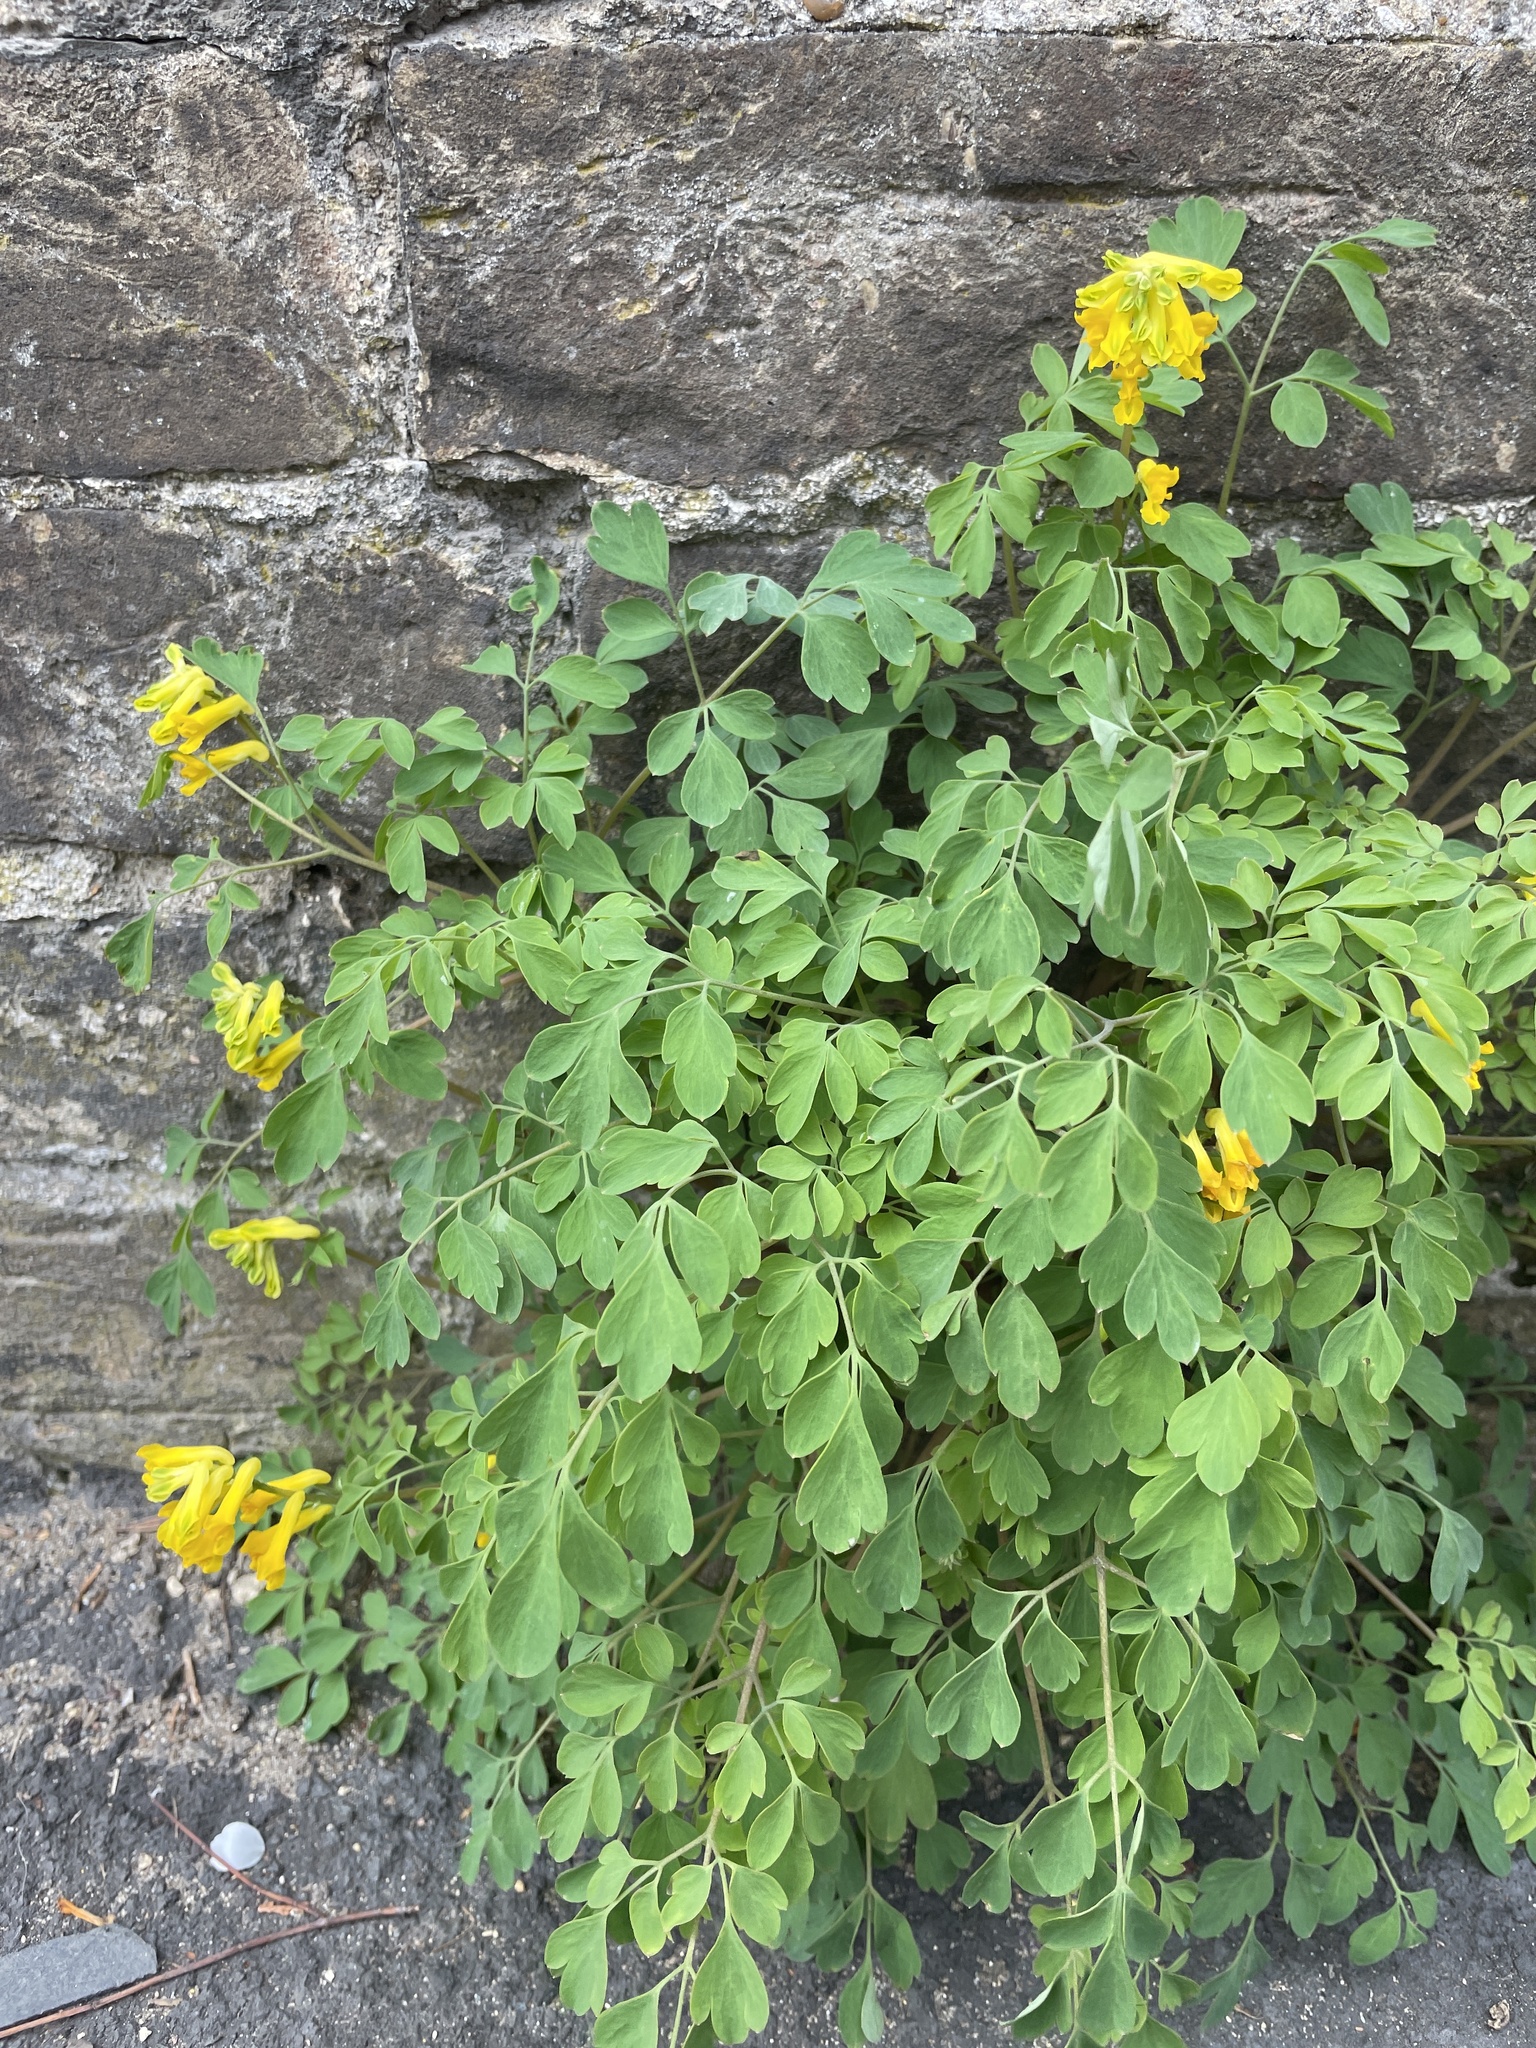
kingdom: Plantae
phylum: Tracheophyta
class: Magnoliopsida
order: Ranunculales
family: Papaveraceae
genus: Pseudofumaria
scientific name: Pseudofumaria lutea
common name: Yellow corydalis
